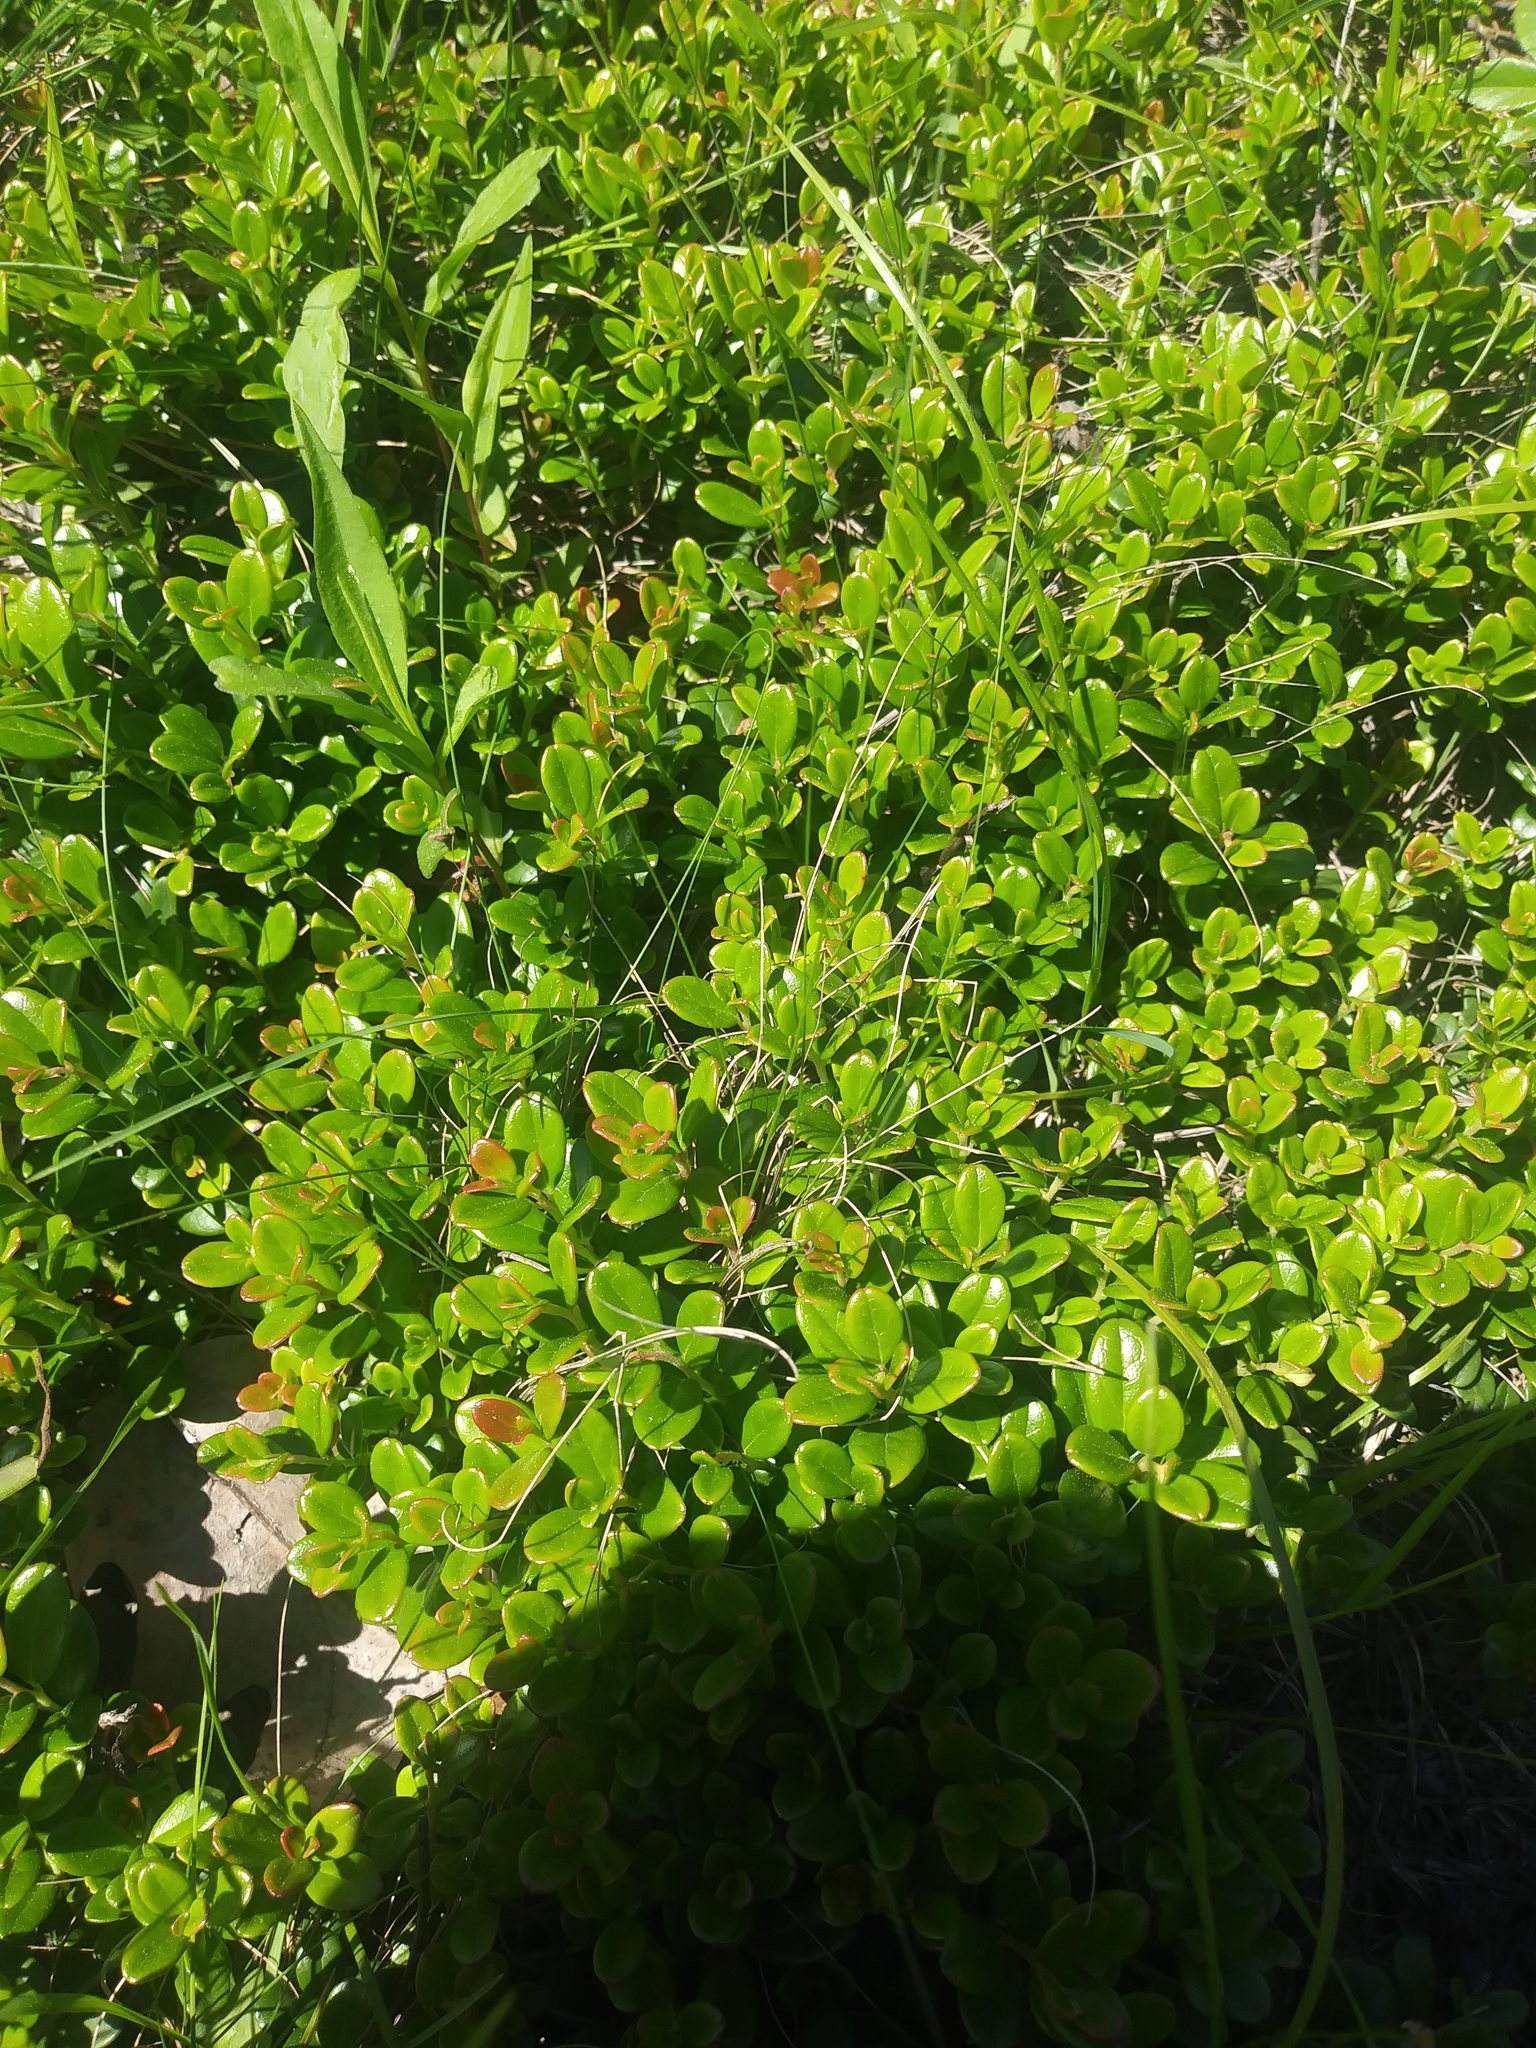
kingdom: Plantae
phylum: Tracheophyta
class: Magnoliopsida
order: Ericales
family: Ericaceae
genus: Vaccinium
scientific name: Vaccinium vitis-idaea
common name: Cowberry
